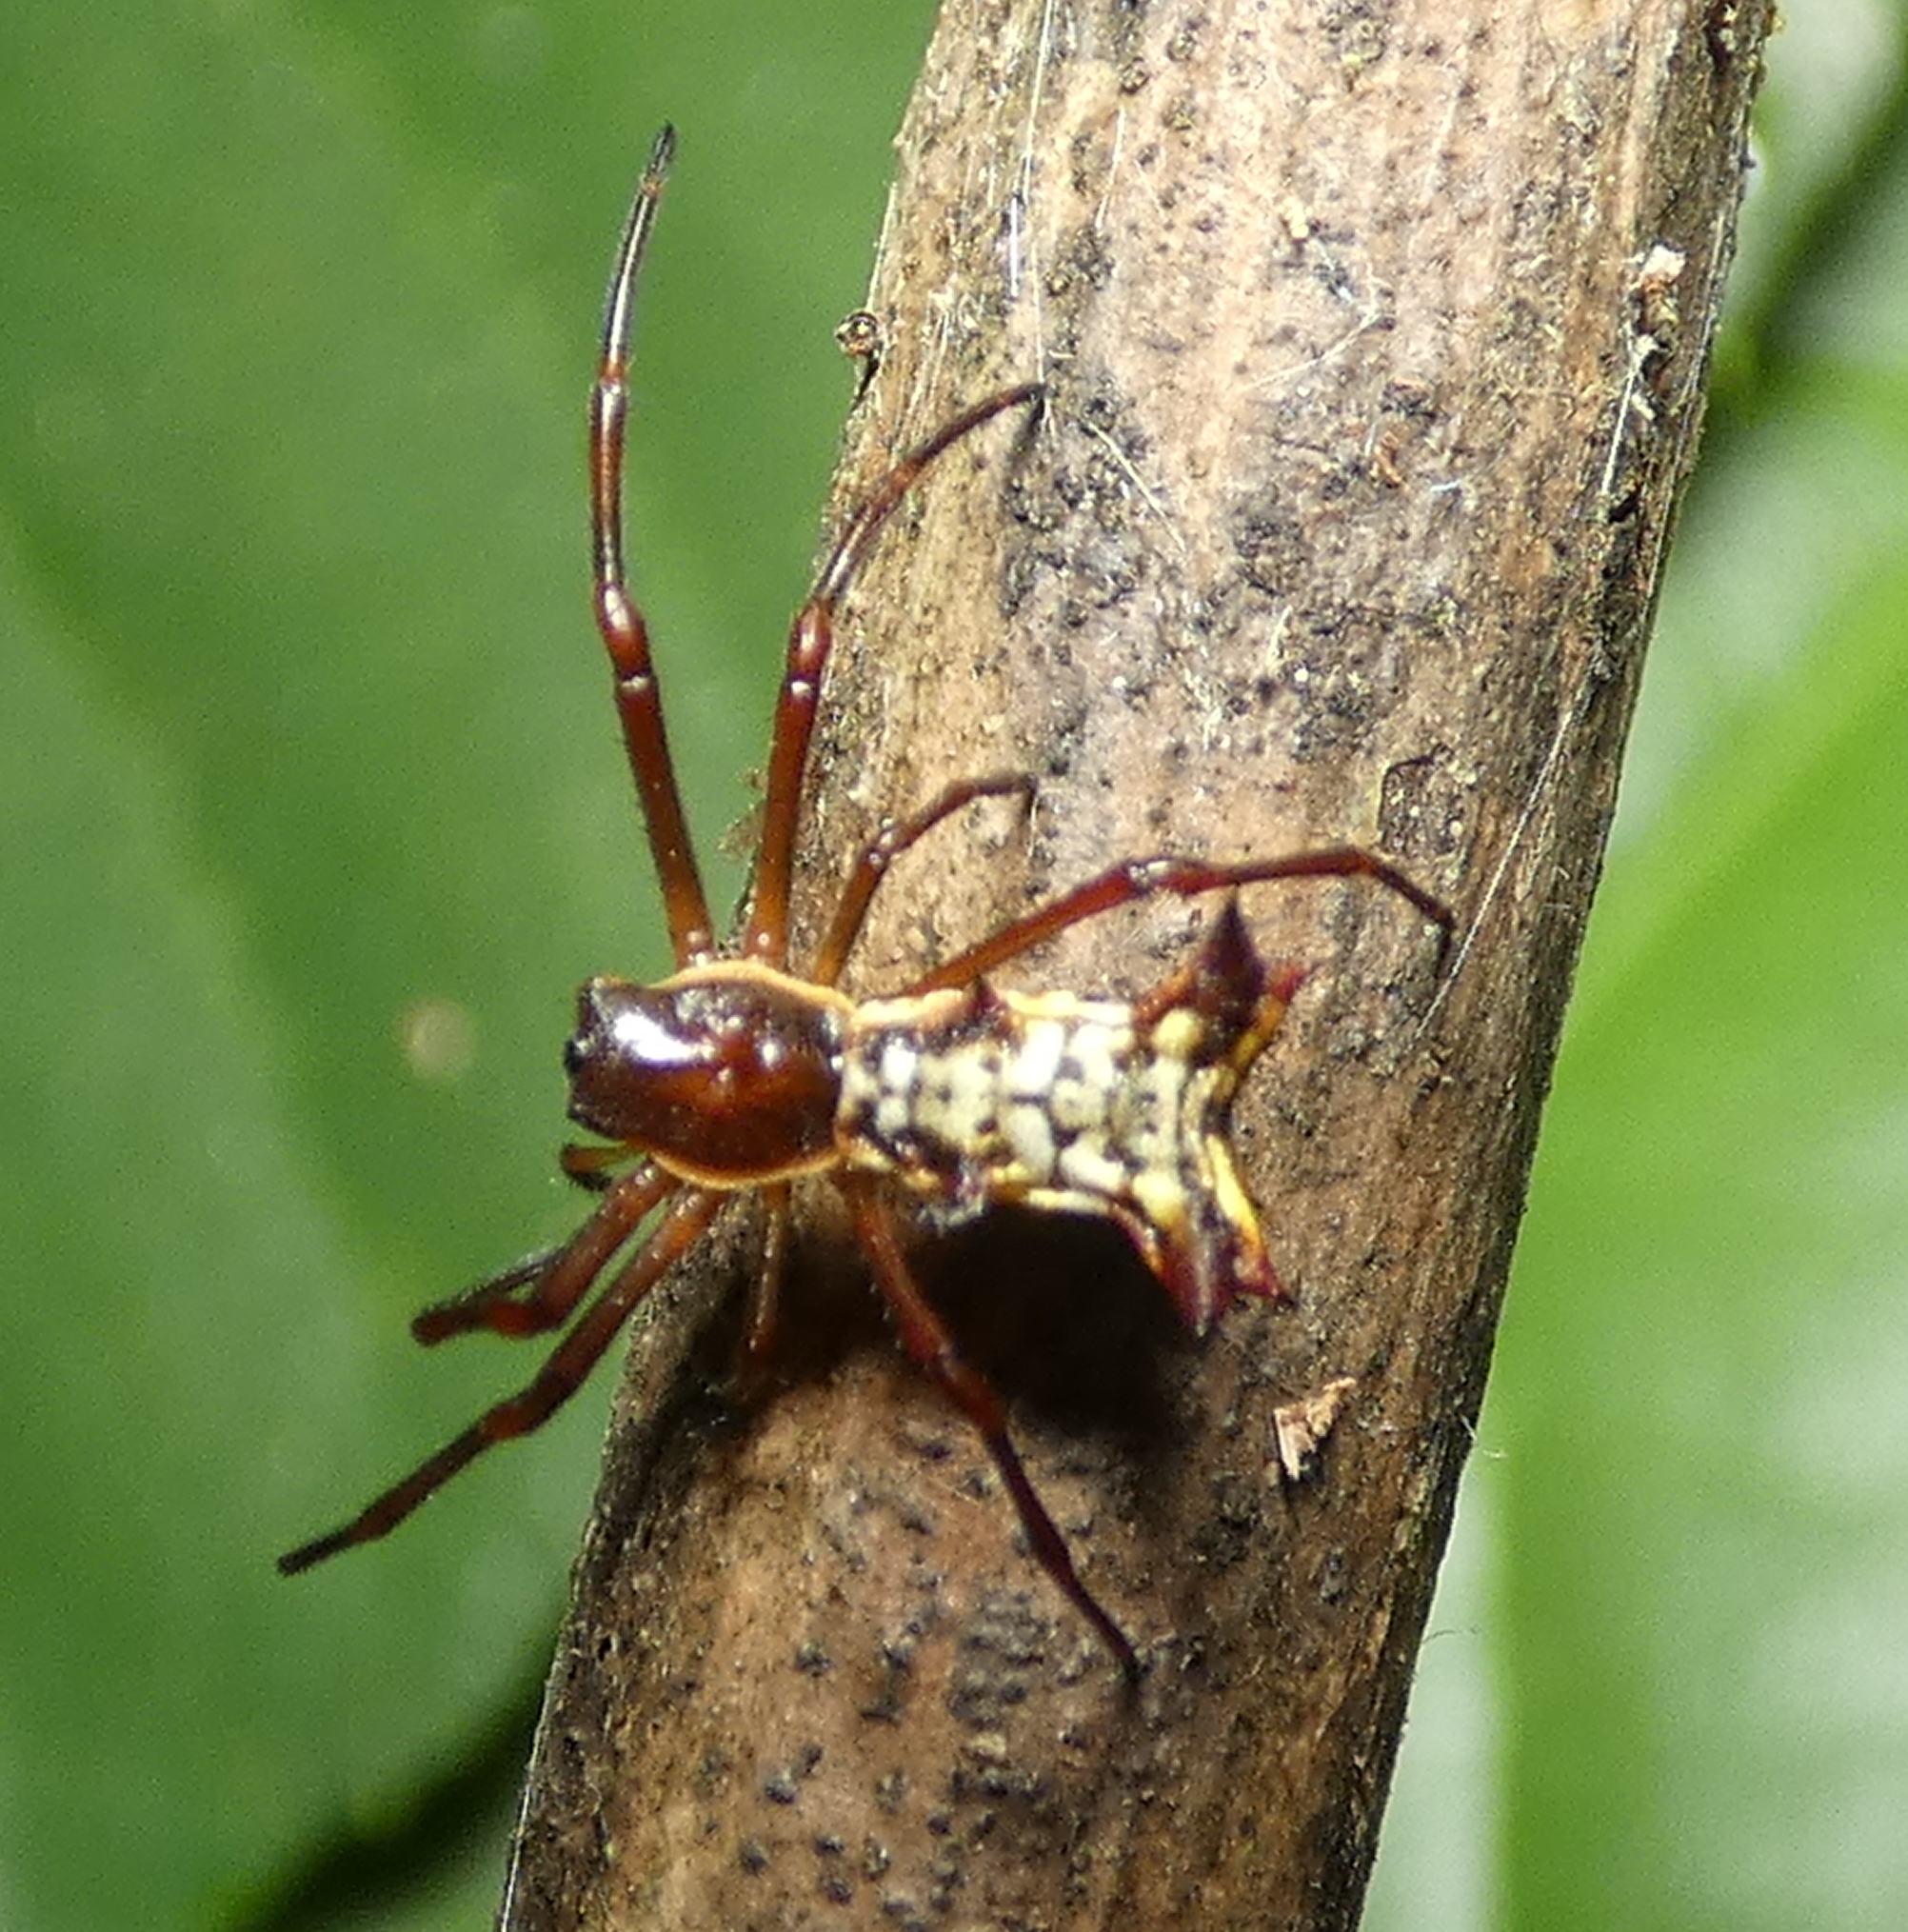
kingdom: Animalia
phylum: Arthropoda
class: Arachnida
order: Araneae
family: Araneidae
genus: Micrathena
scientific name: Micrathena fissispina
